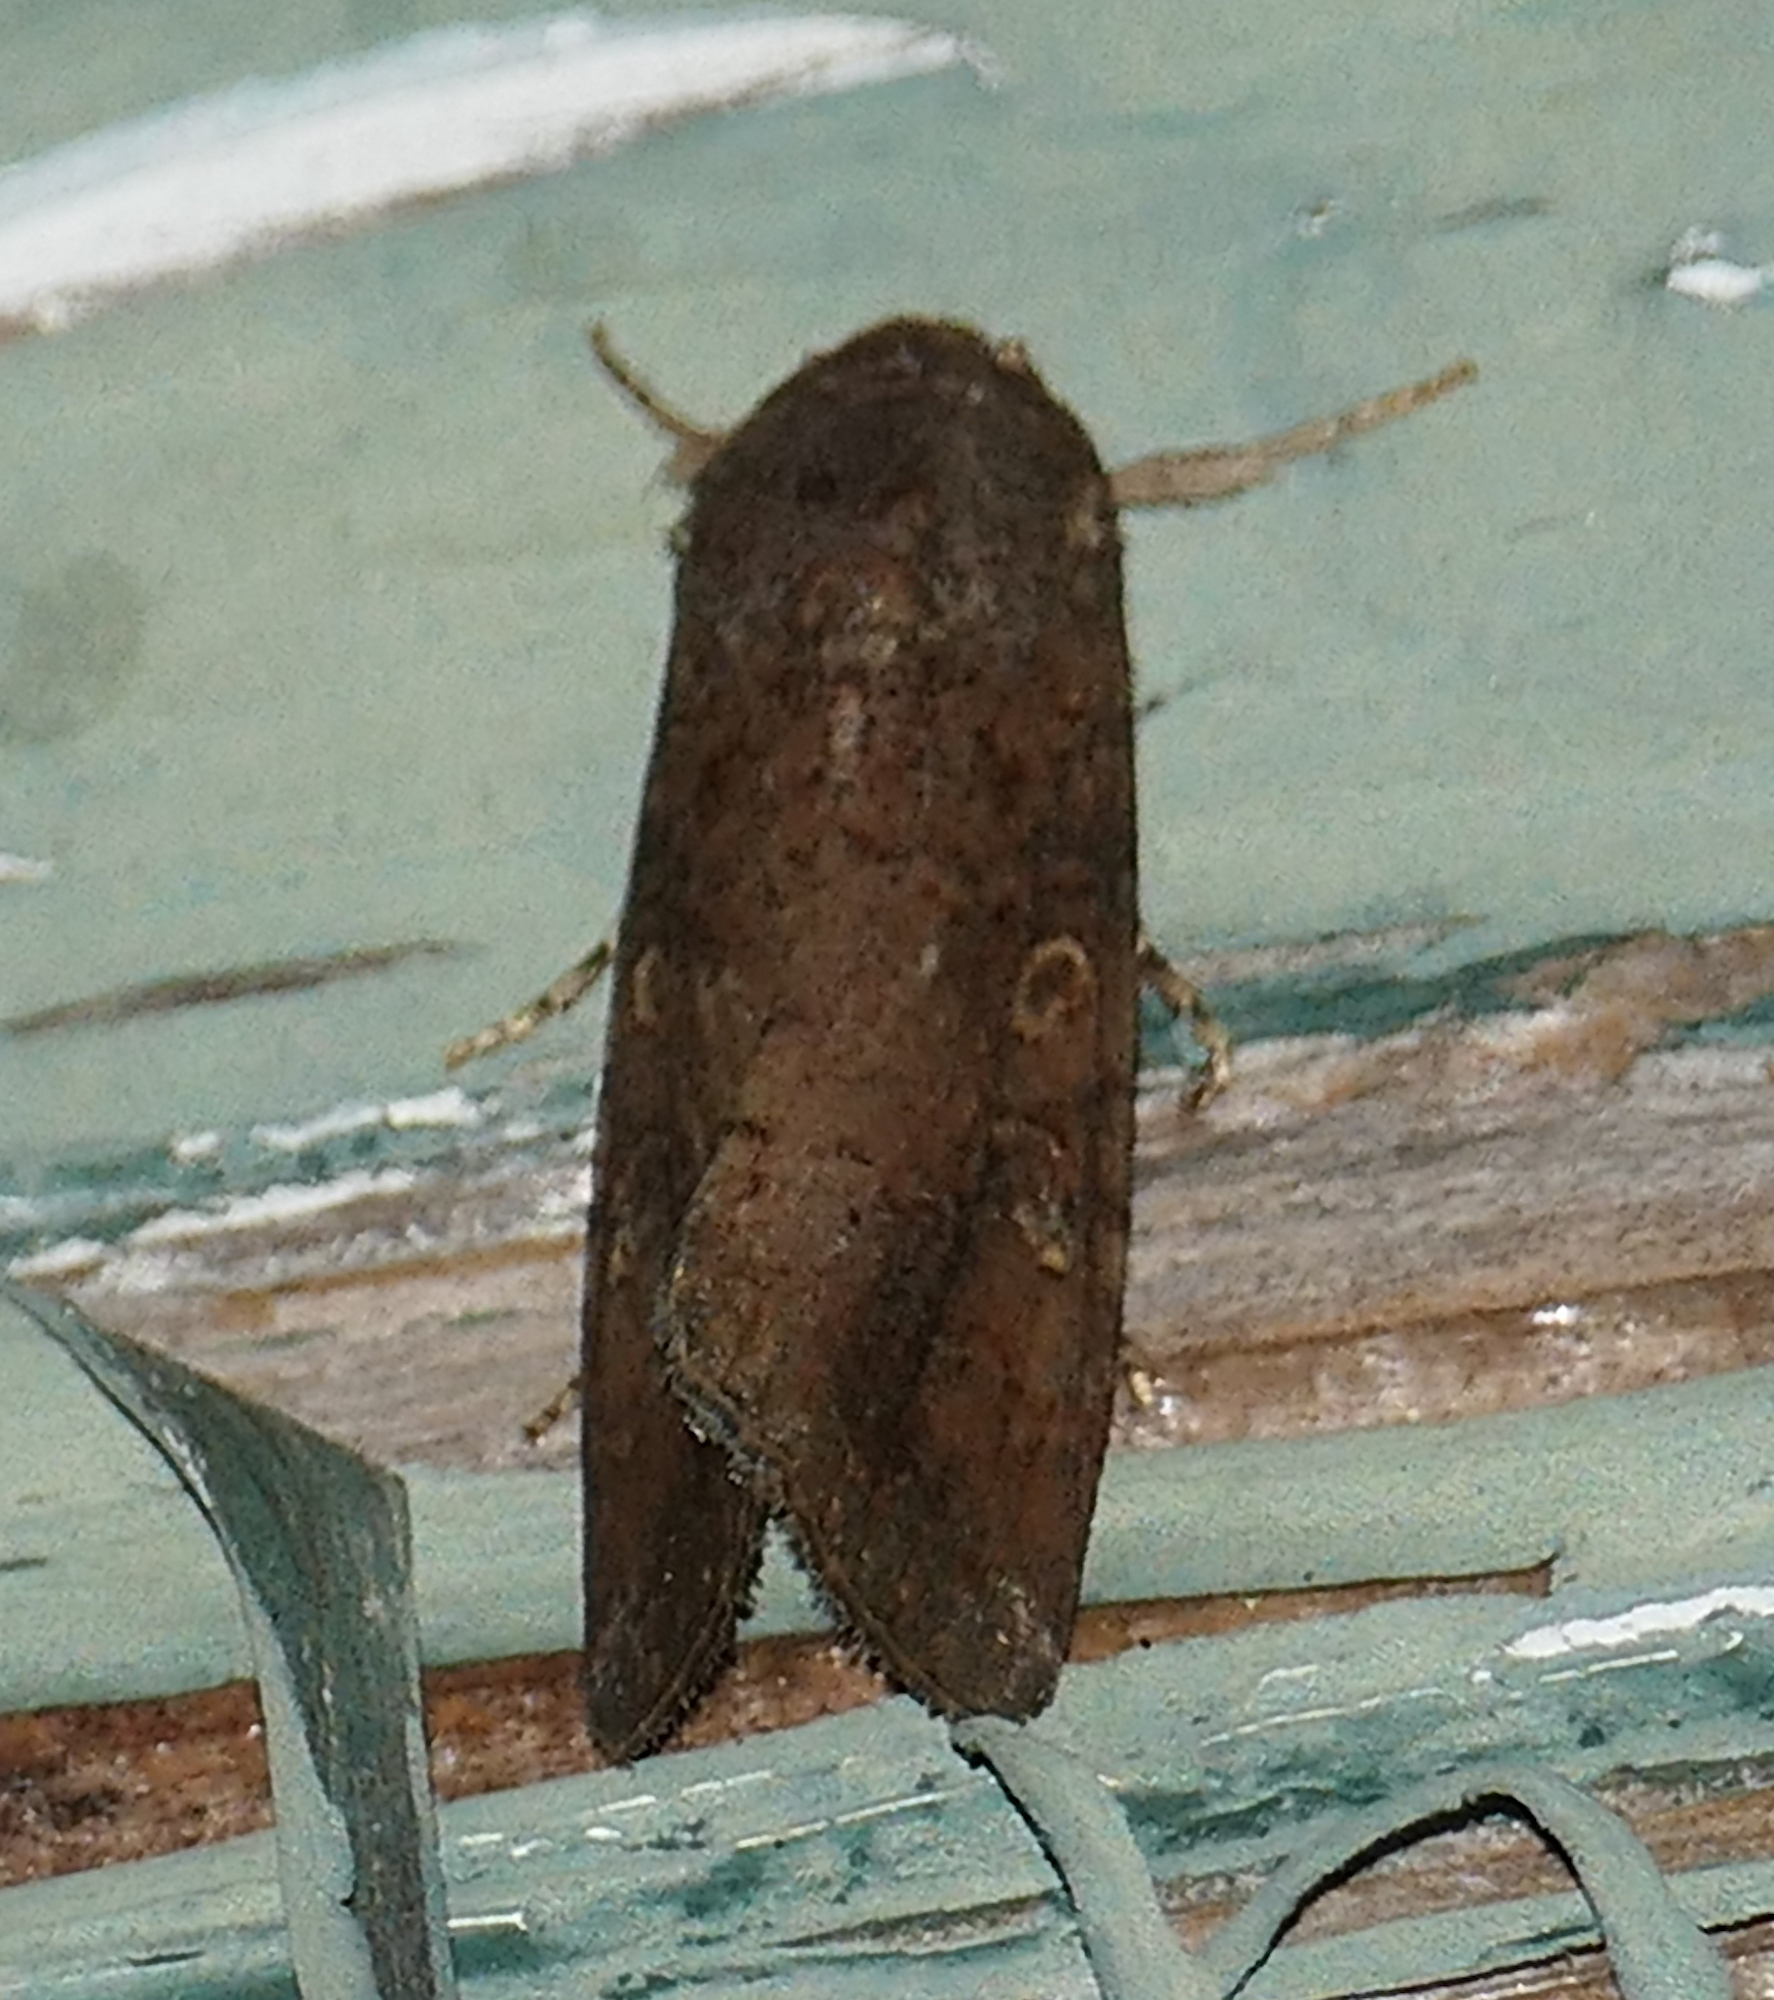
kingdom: Animalia
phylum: Arthropoda
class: Insecta
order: Lepidoptera
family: Noctuidae
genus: Spodoptera
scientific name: Spodoptera frugiperda
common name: Fall armyworm
